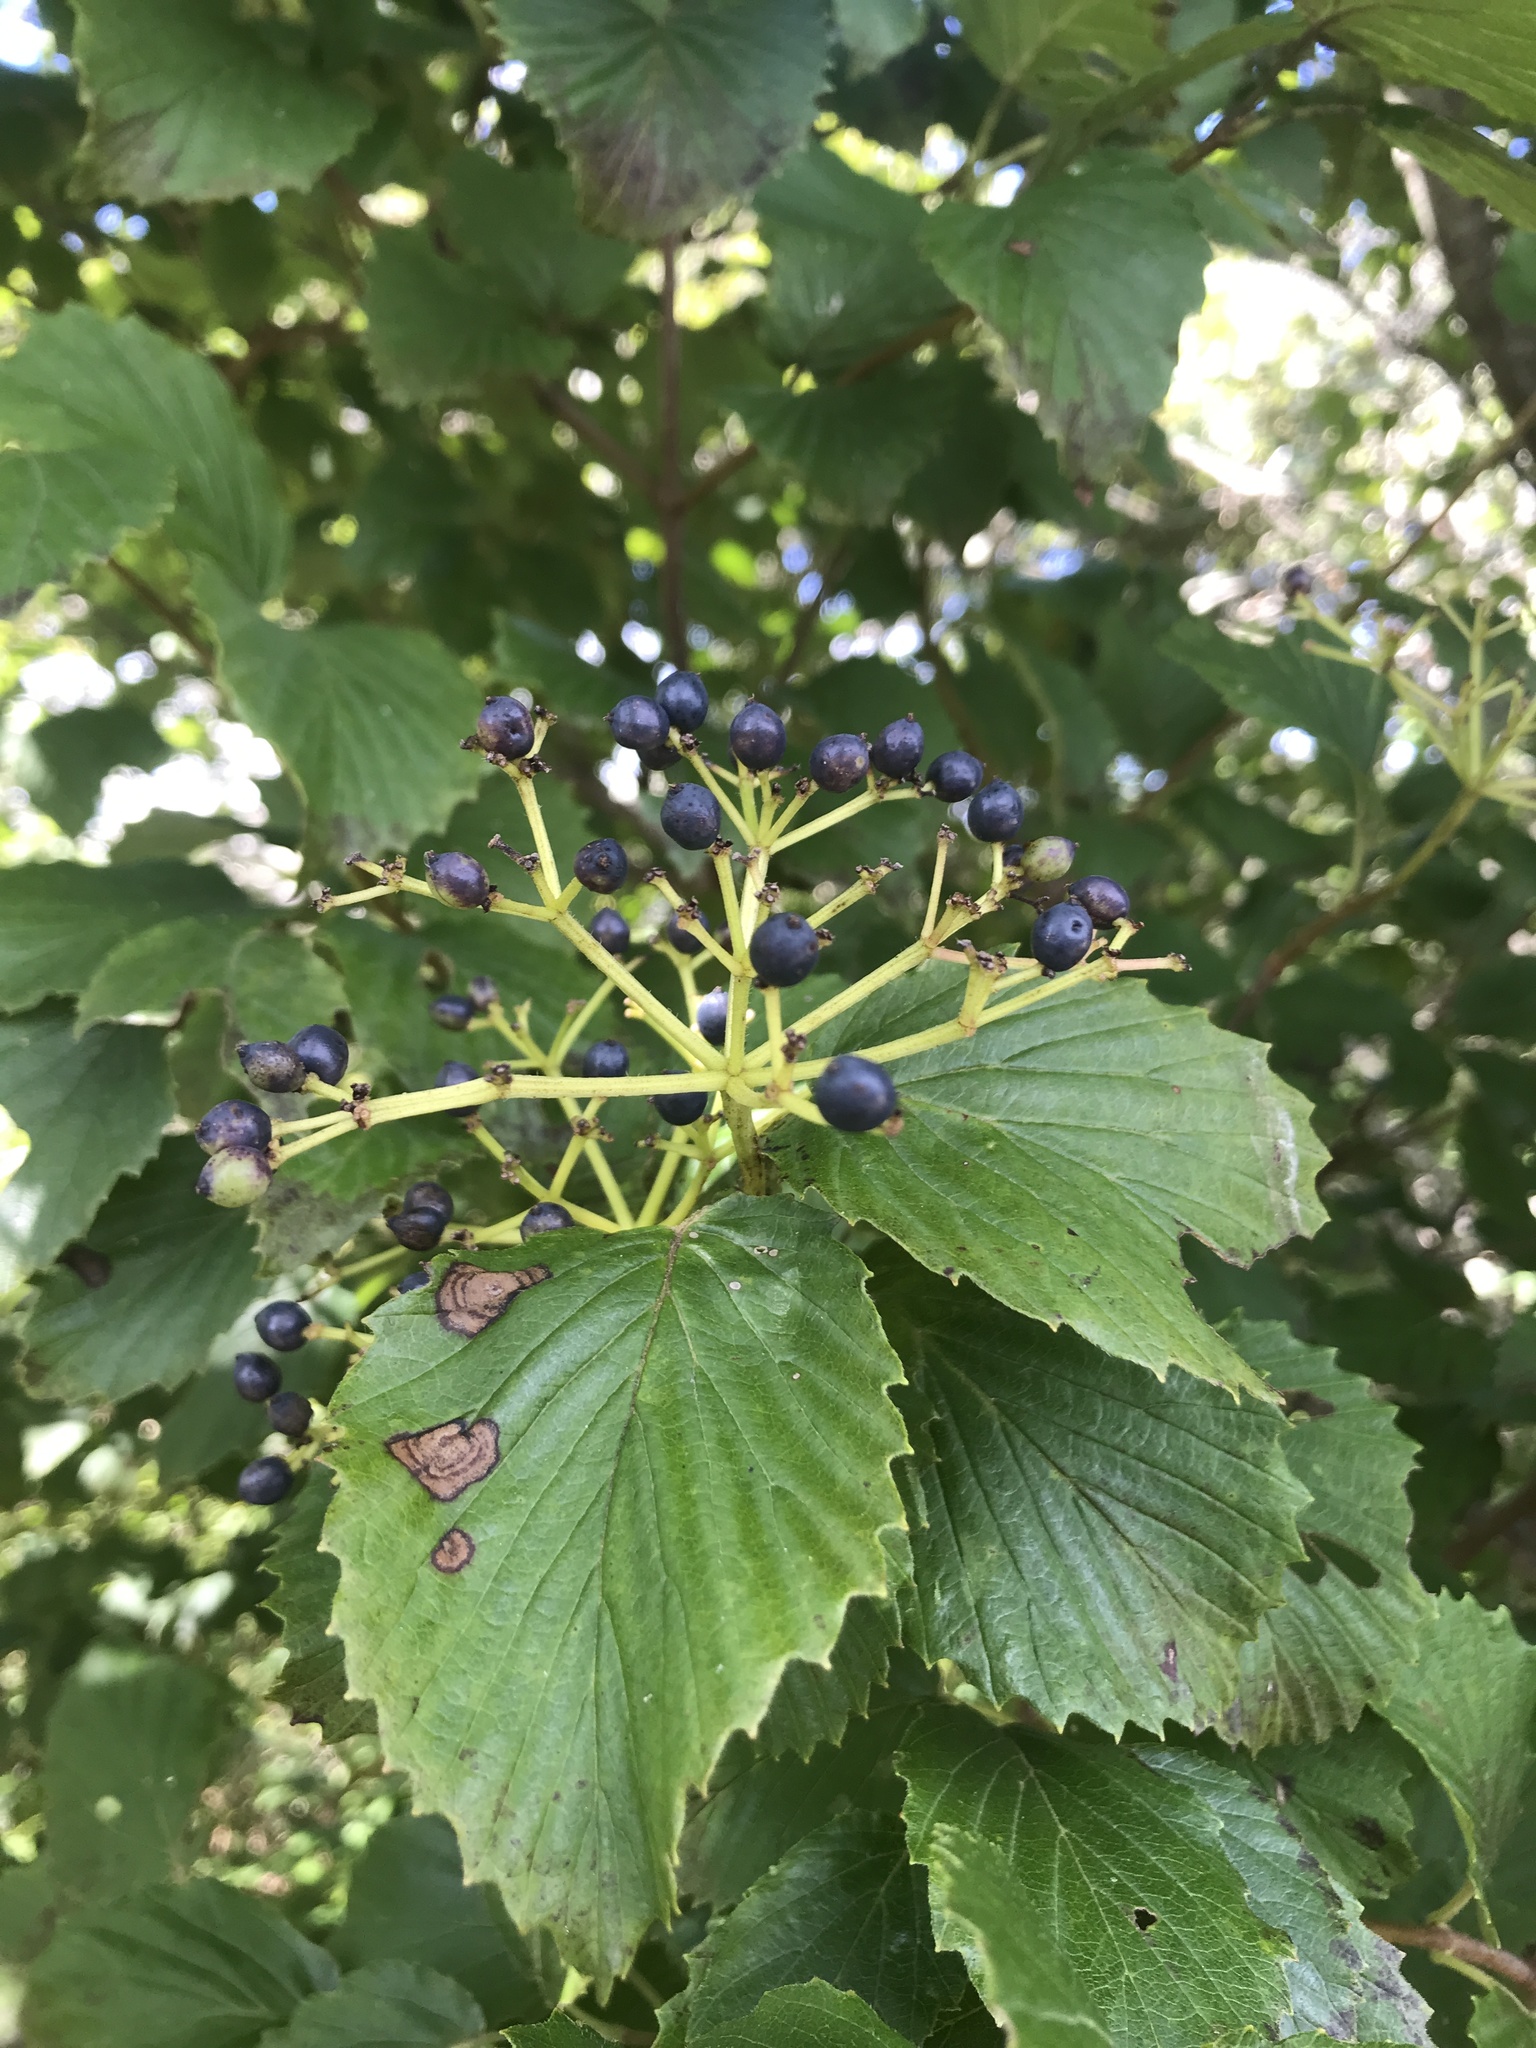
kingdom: Plantae
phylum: Tracheophyta
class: Magnoliopsida
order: Dipsacales
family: Viburnaceae
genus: Viburnum
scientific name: Viburnum dentatum
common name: Arrow-wood
